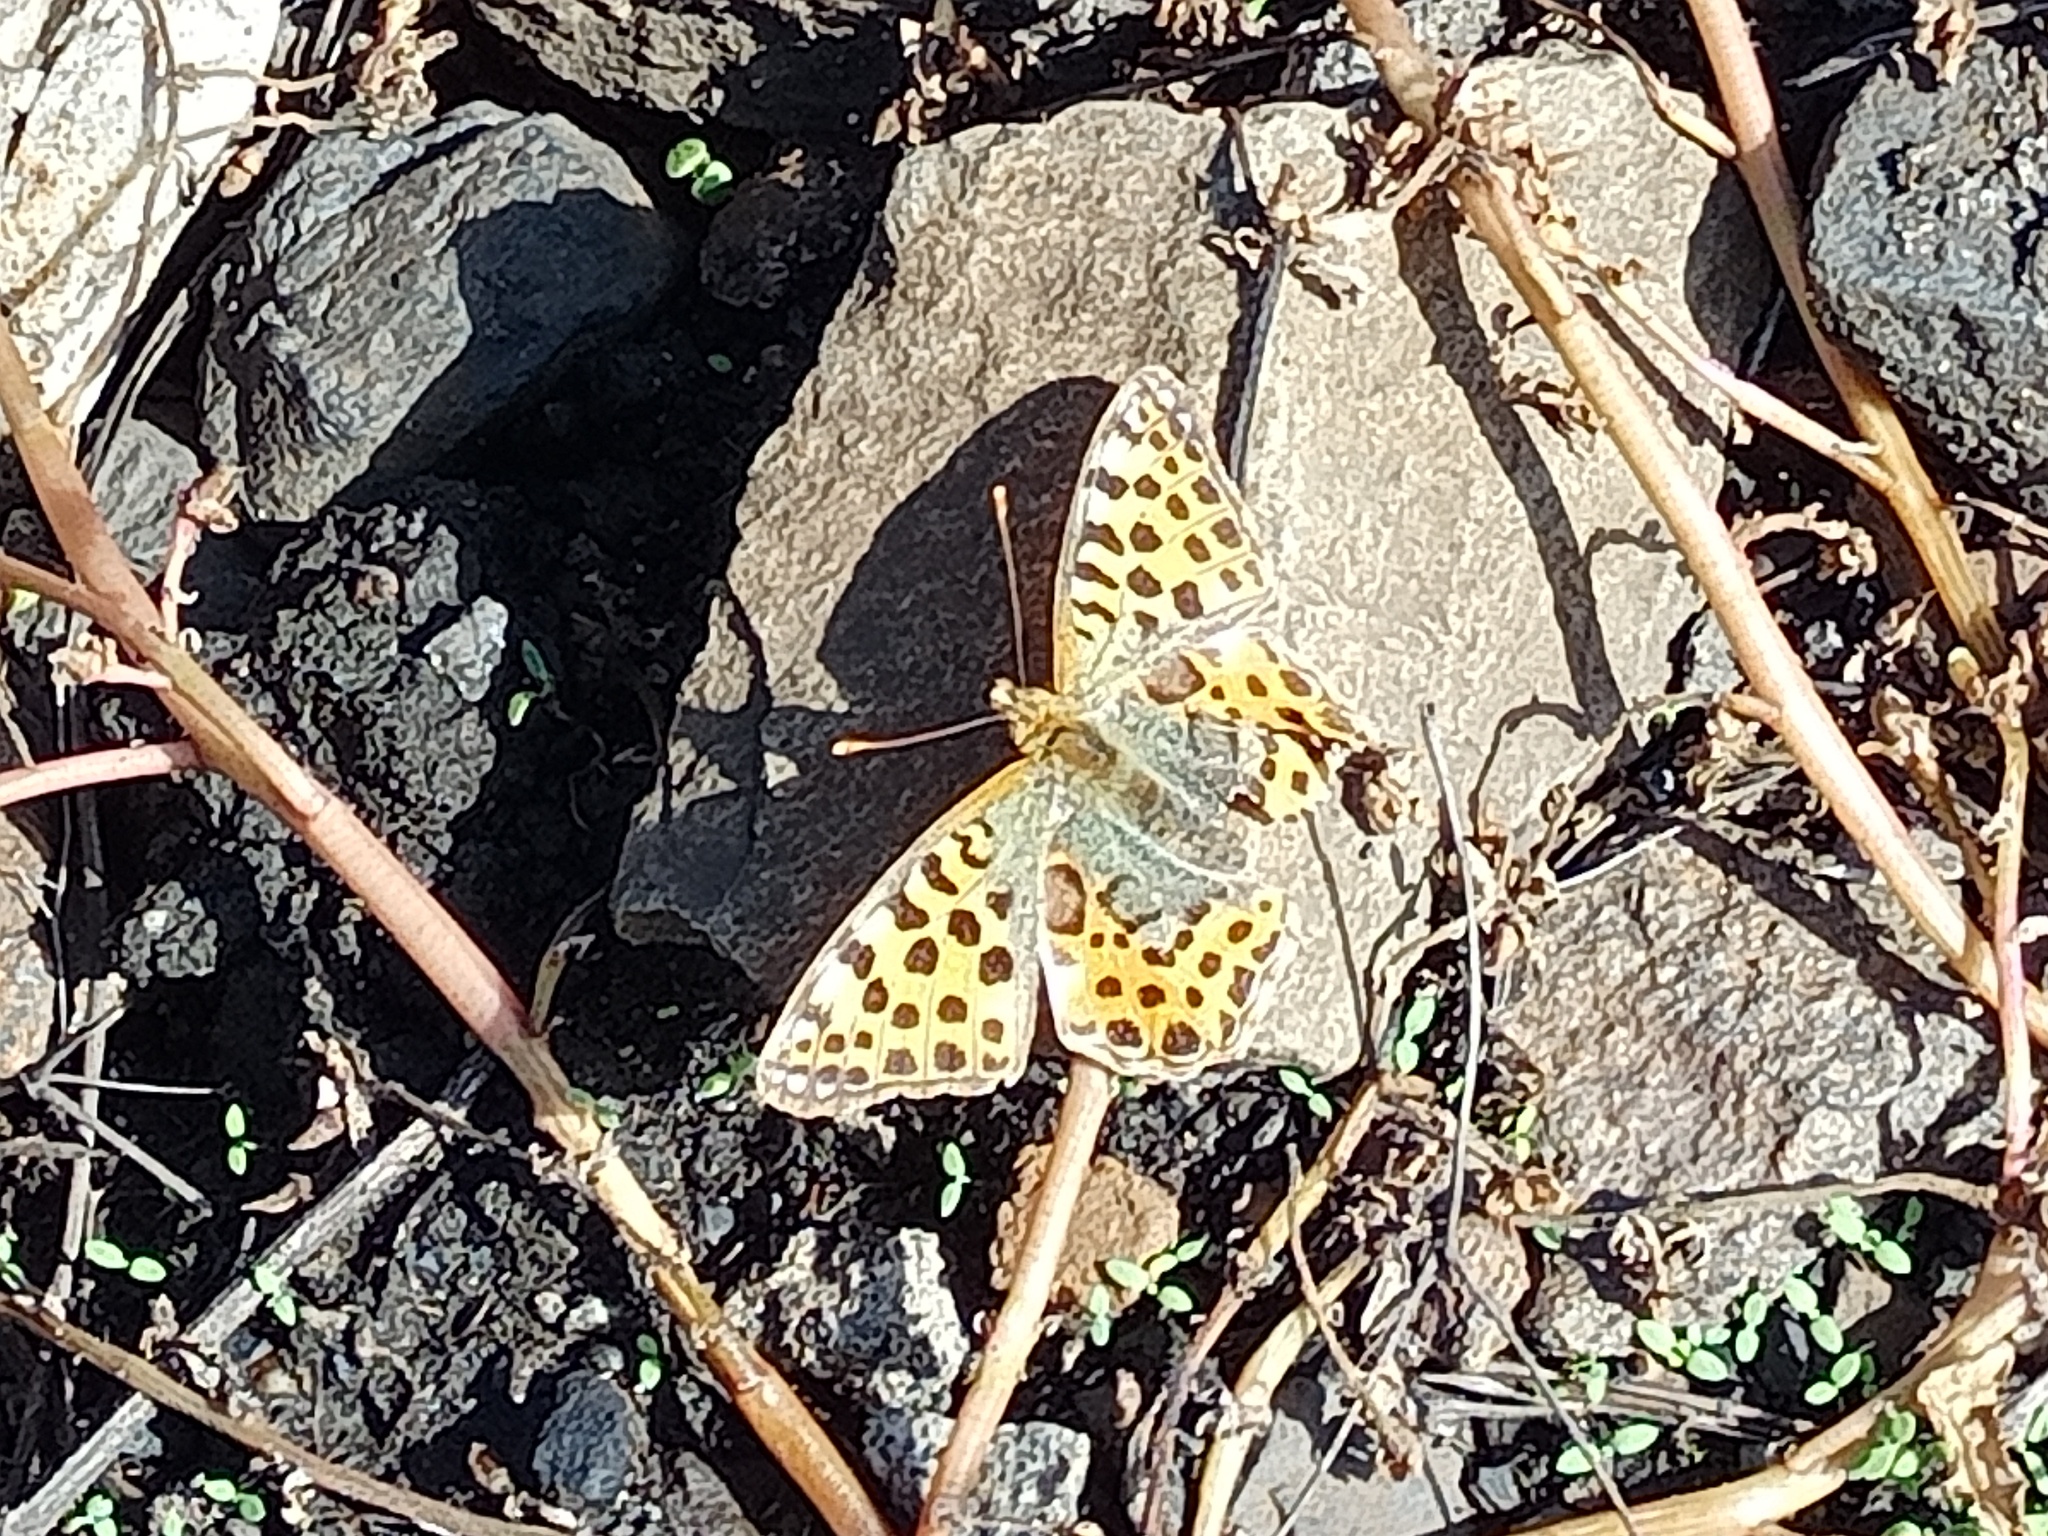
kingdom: Animalia
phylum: Arthropoda
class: Insecta
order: Lepidoptera
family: Nymphalidae
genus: Issoria
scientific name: Issoria lathonia
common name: Queen of spain fritillary
